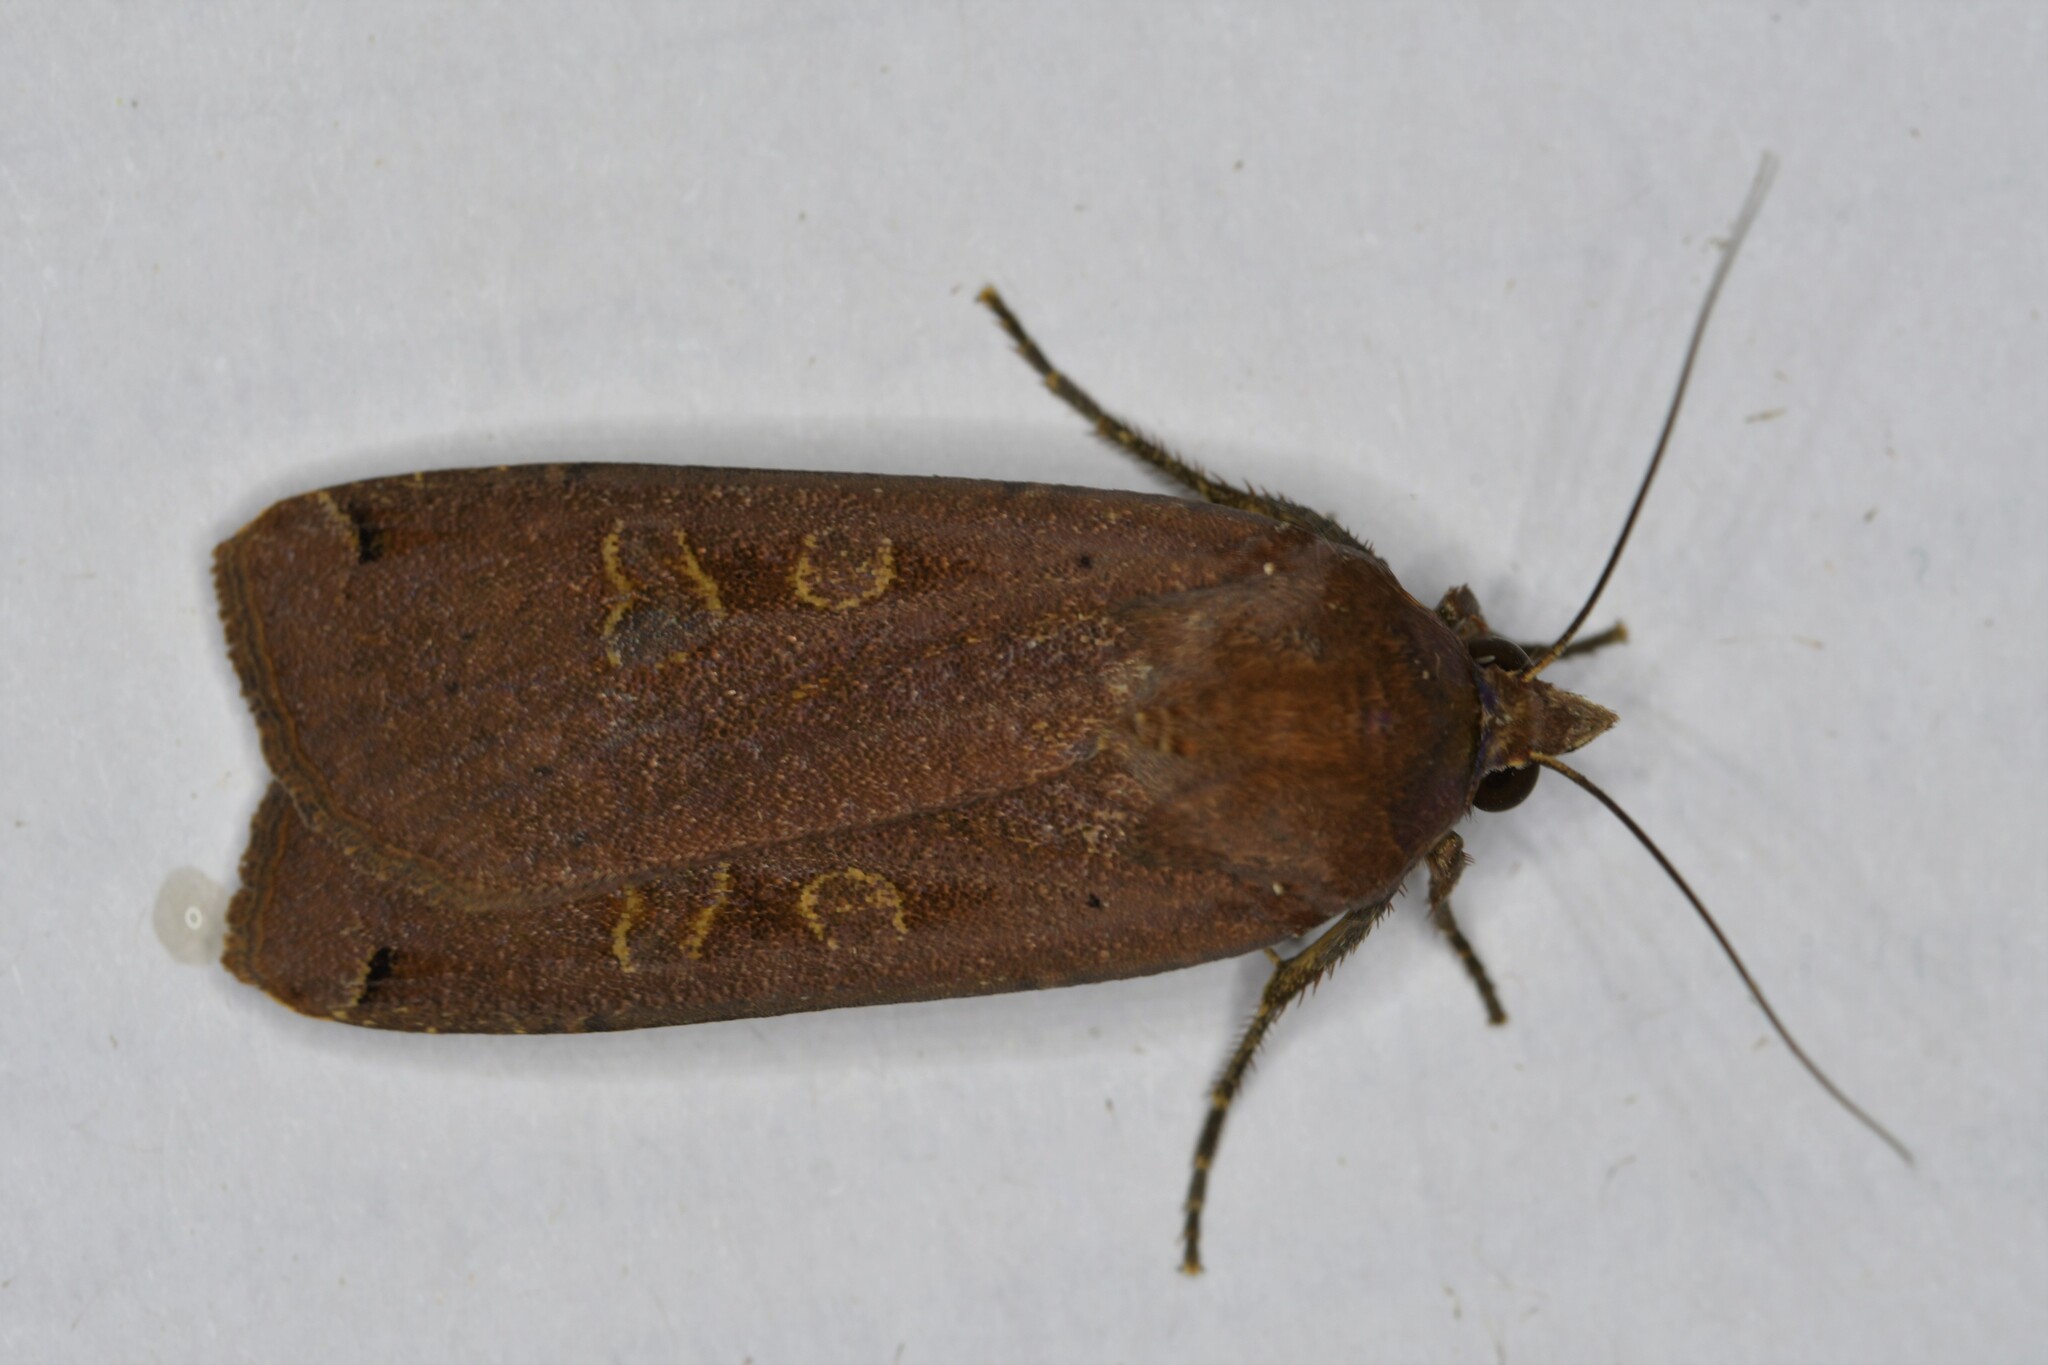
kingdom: Animalia
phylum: Arthropoda
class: Insecta
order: Lepidoptera
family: Noctuidae
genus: Noctua
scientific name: Noctua pronuba
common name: Large yellow underwing
